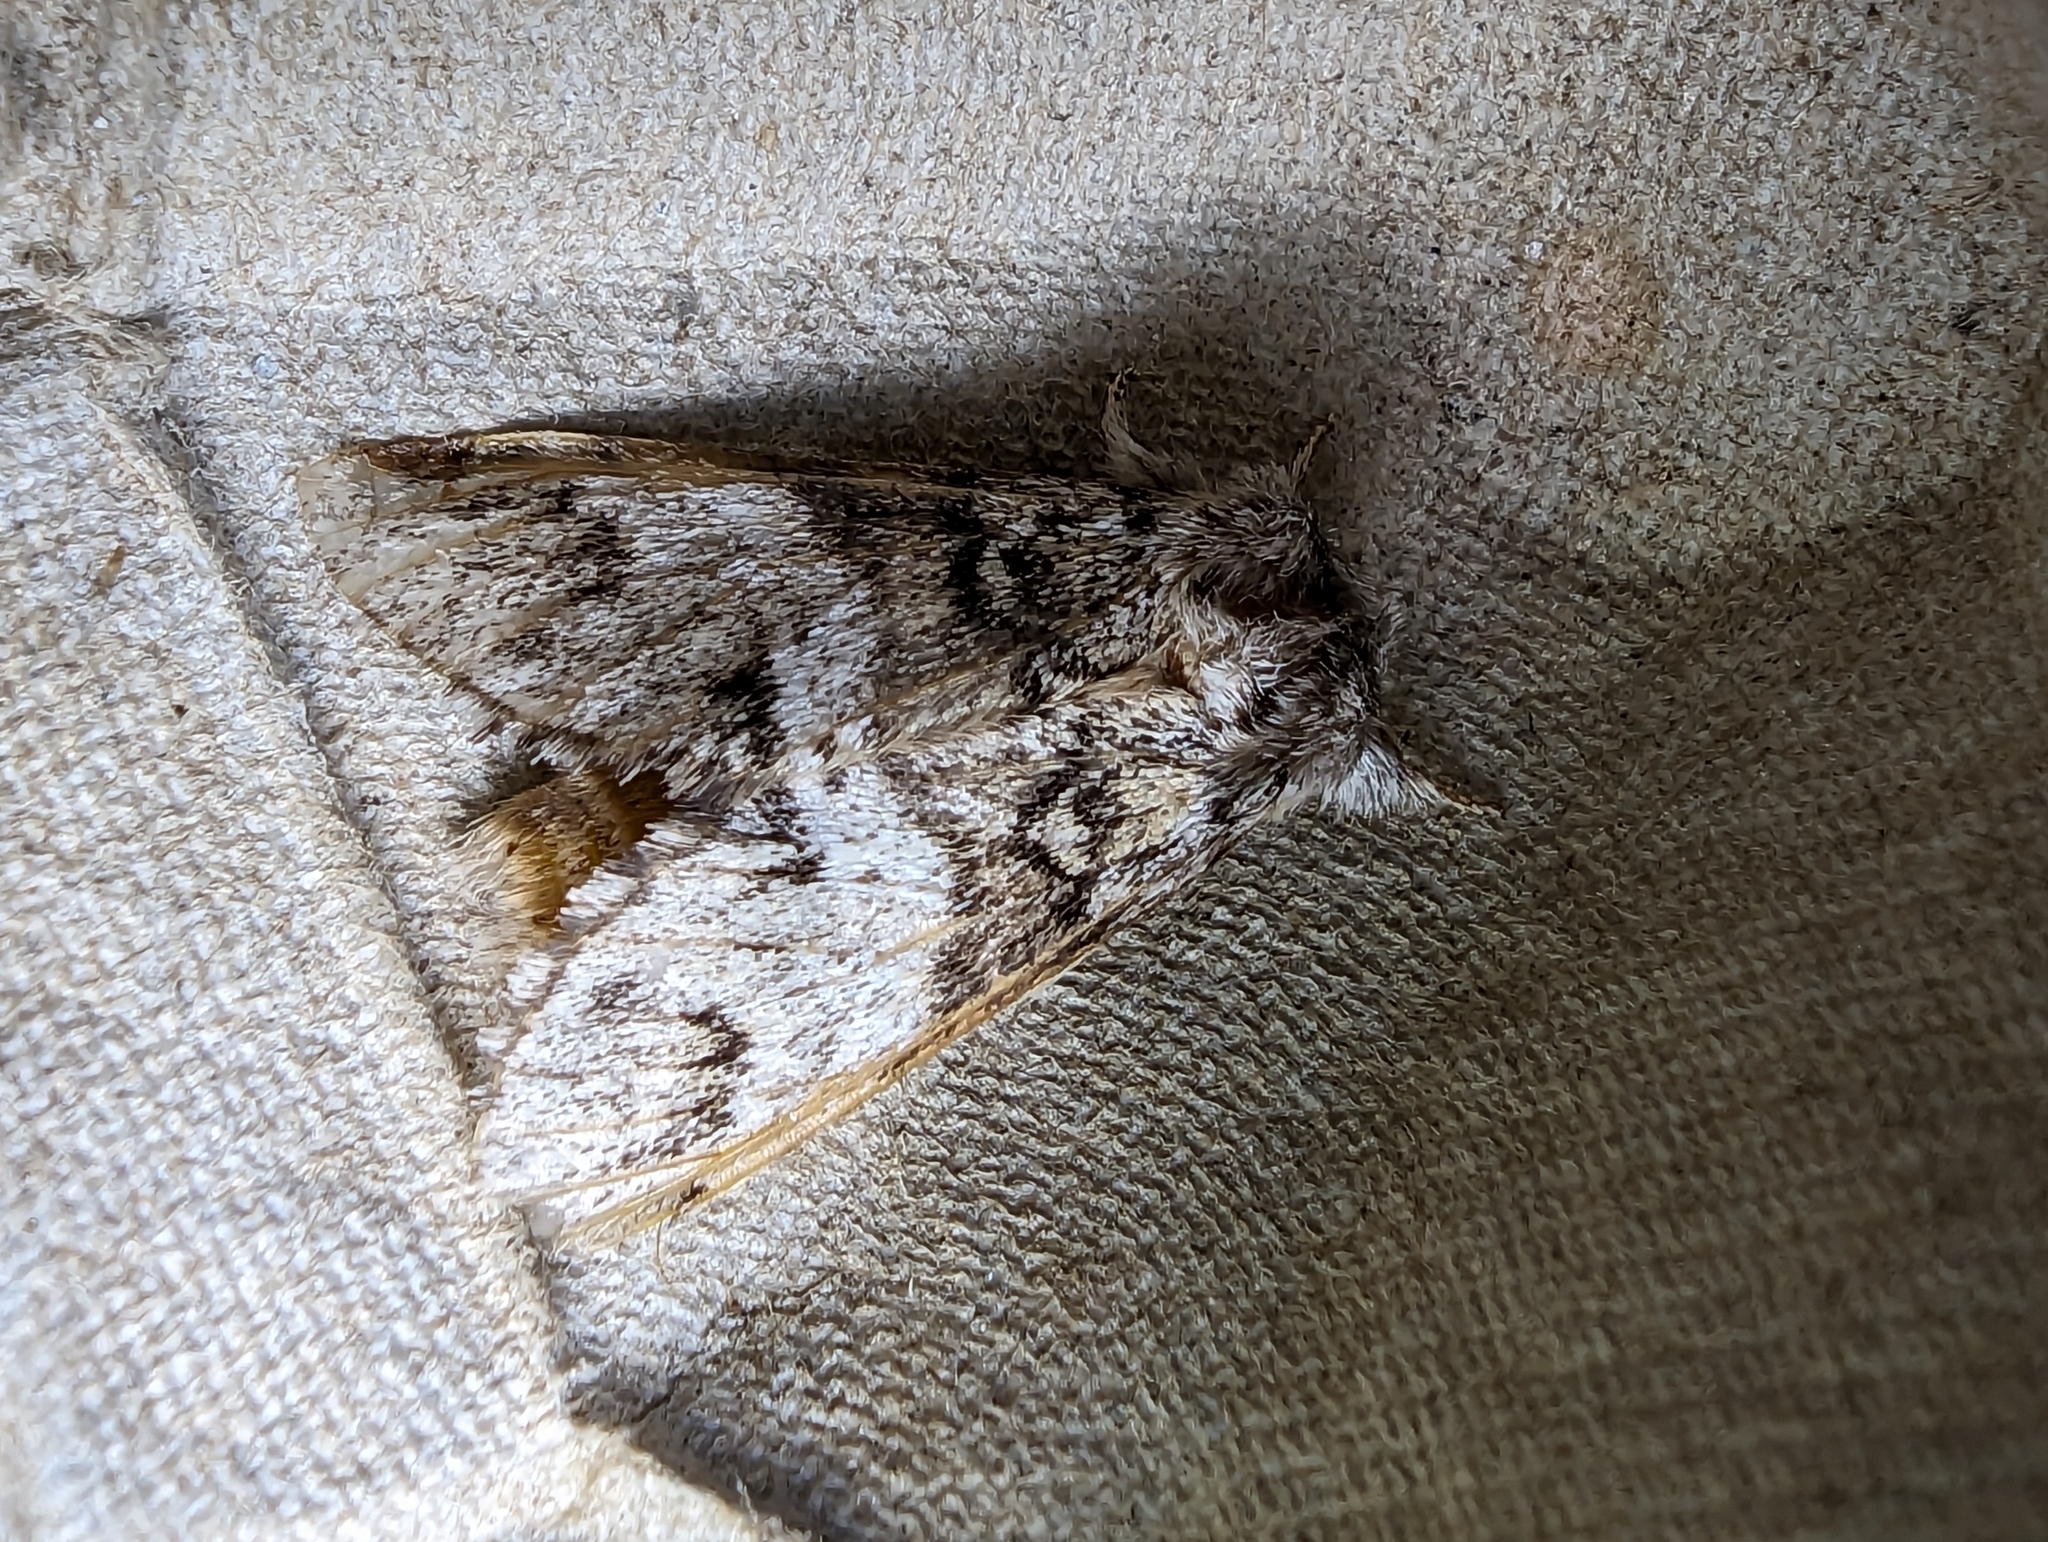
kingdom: Animalia
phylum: Arthropoda
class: Insecta
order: Lepidoptera
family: Notodontidae
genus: Drymonia
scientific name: Drymonia dodonaea
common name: Marbled brown
